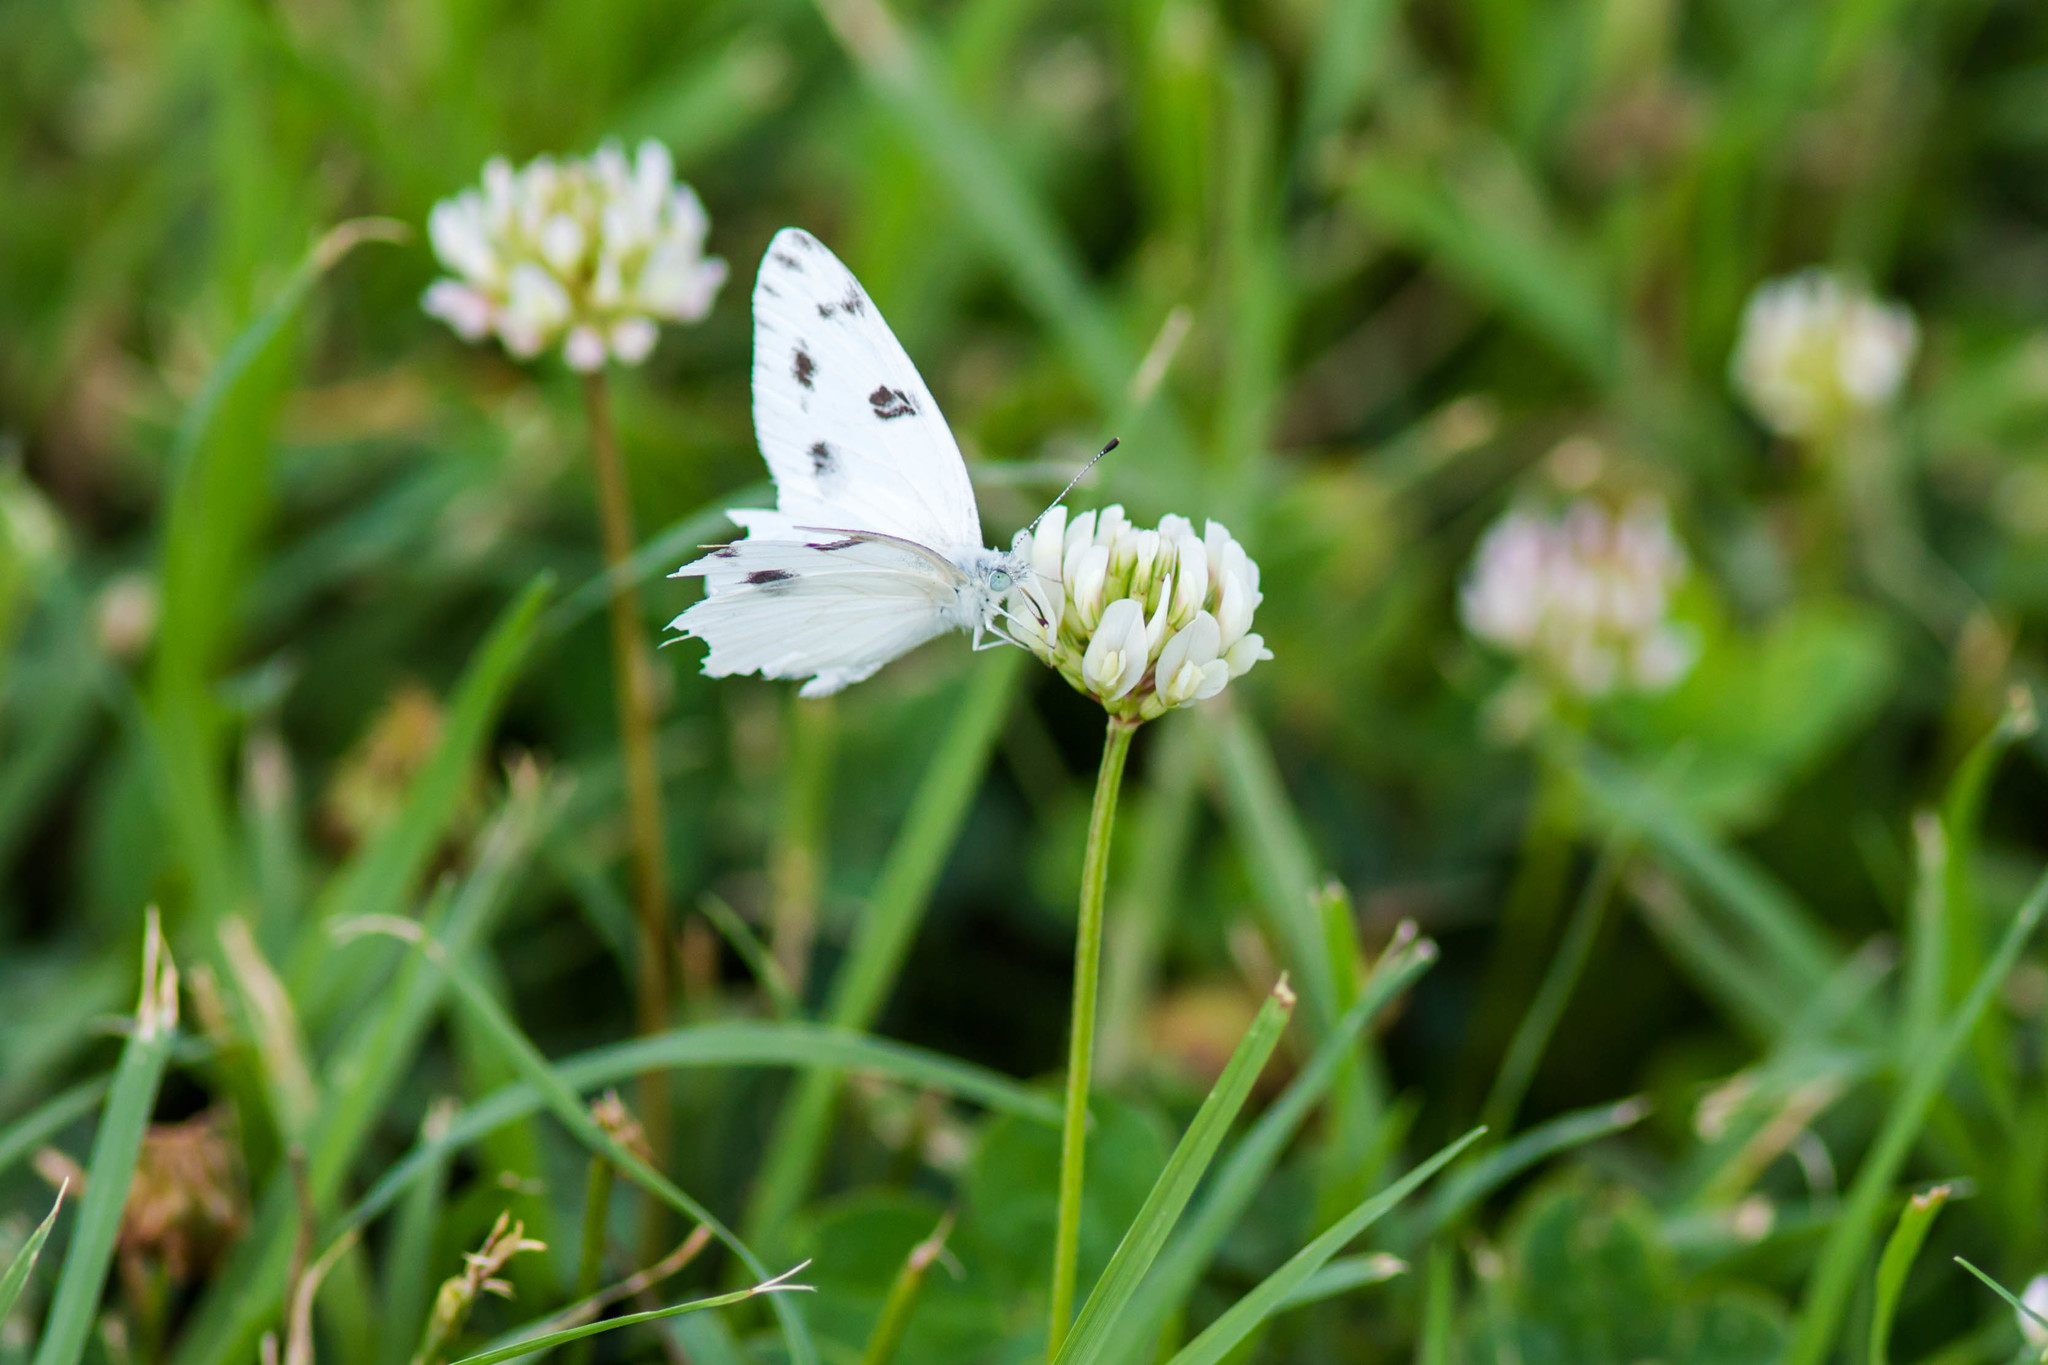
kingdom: Animalia
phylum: Arthropoda
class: Insecta
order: Lepidoptera
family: Pieridae
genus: Pontia
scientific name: Pontia protodice
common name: Checkered white
